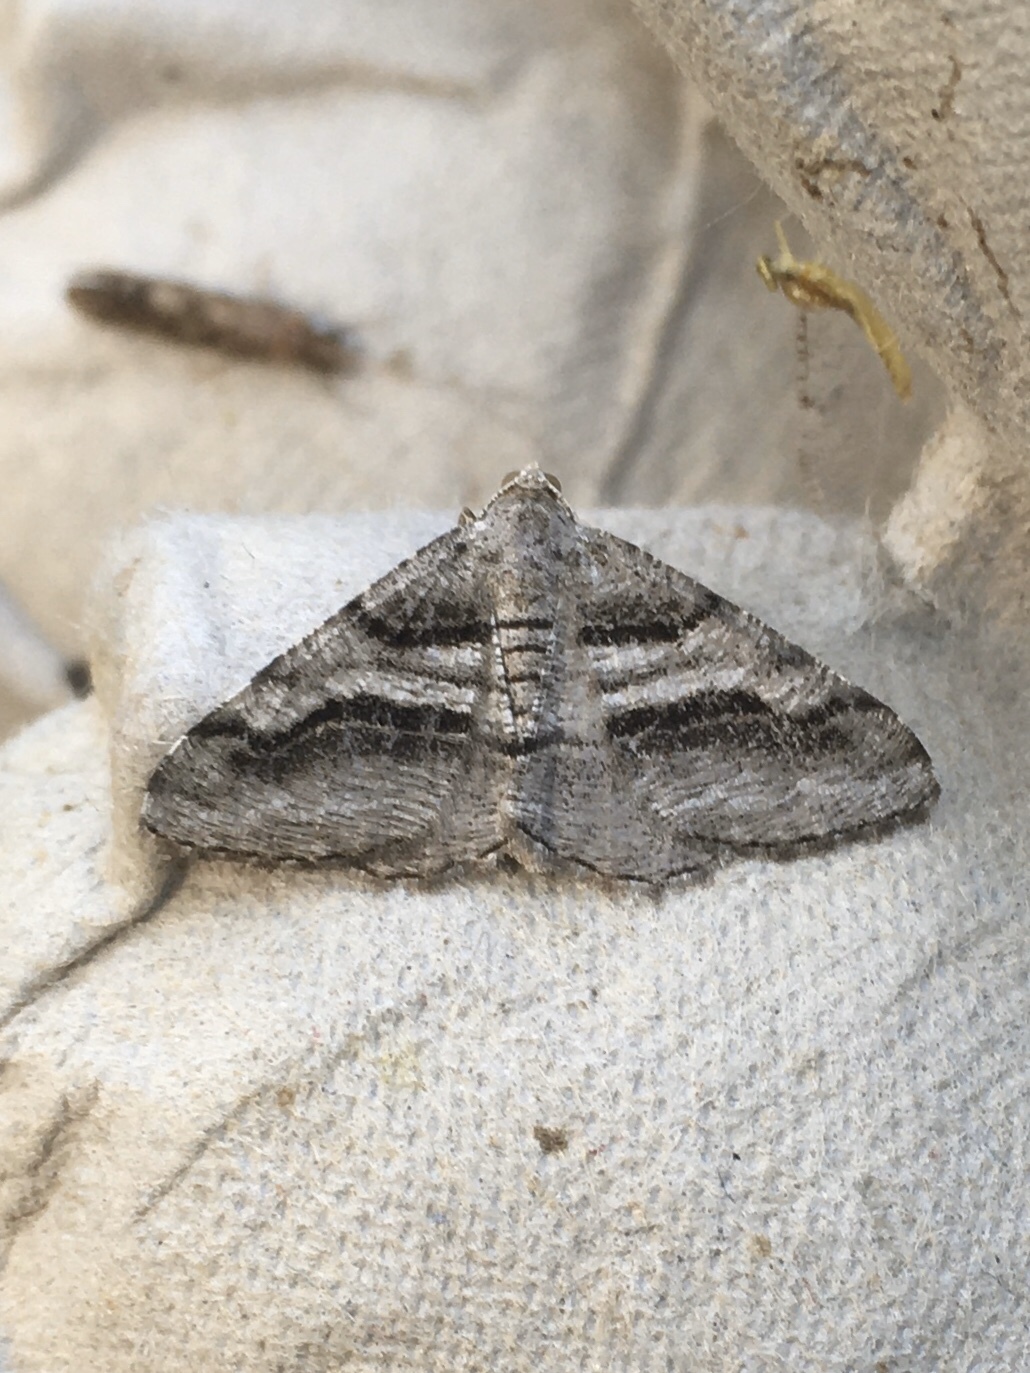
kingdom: Animalia
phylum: Arthropoda
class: Insecta
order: Lepidoptera
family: Geometridae
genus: Digrammia
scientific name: Digrammia continuata
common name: Curve-lined angle
